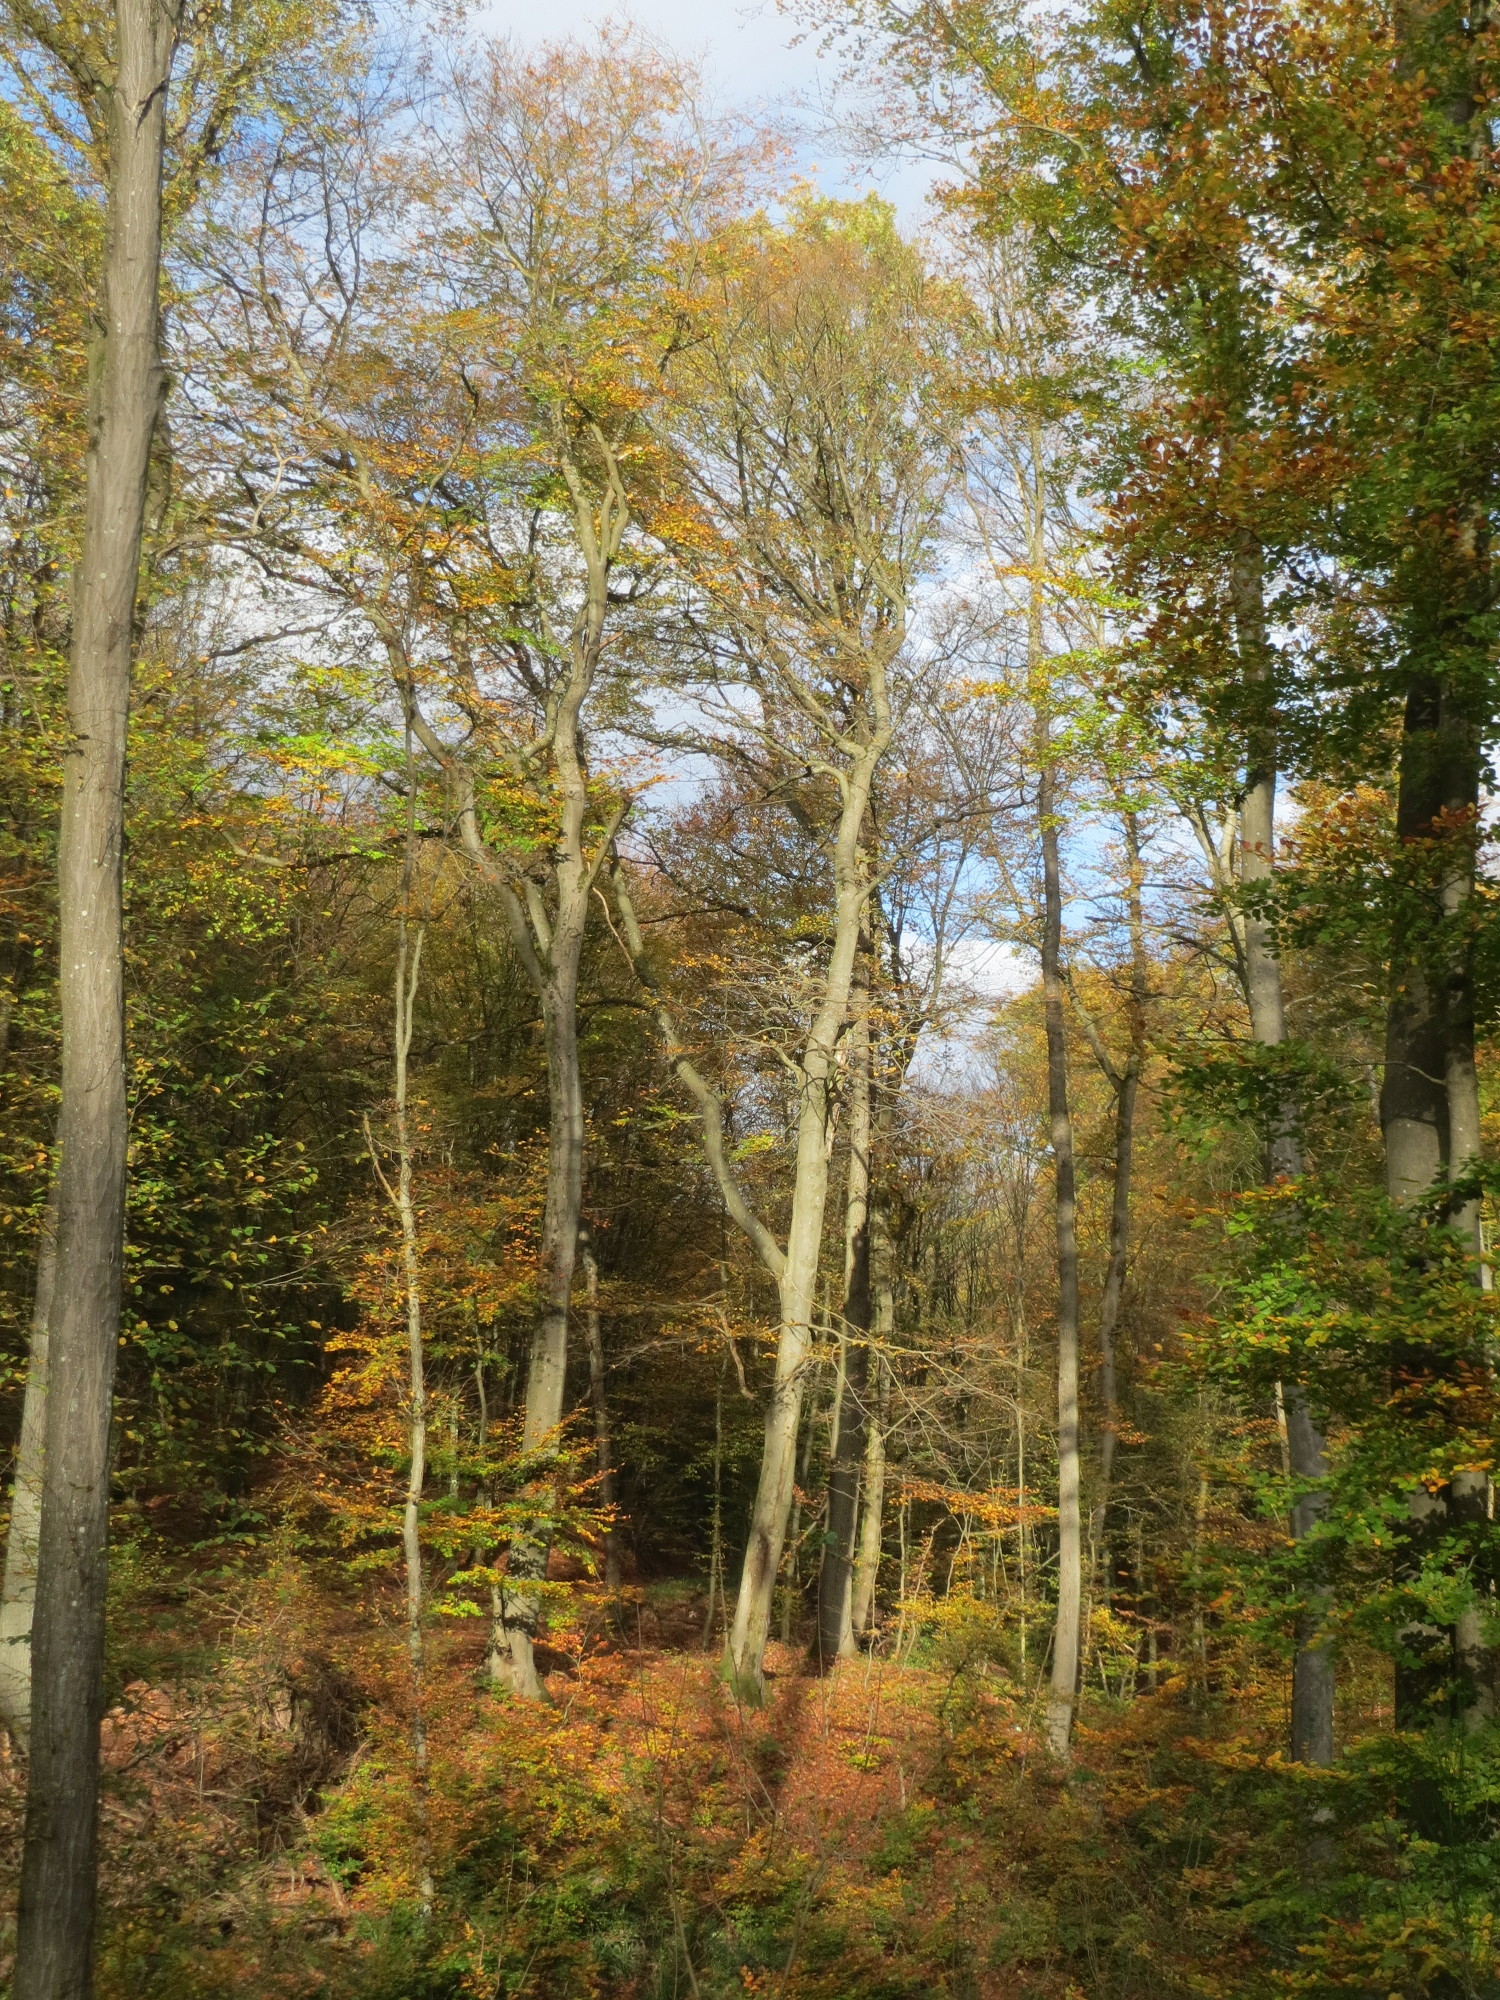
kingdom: Plantae
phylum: Tracheophyta
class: Magnoliopsida
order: Fagales
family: Fagaceae
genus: Fagus
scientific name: Fagus sylvatica
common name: Beech
